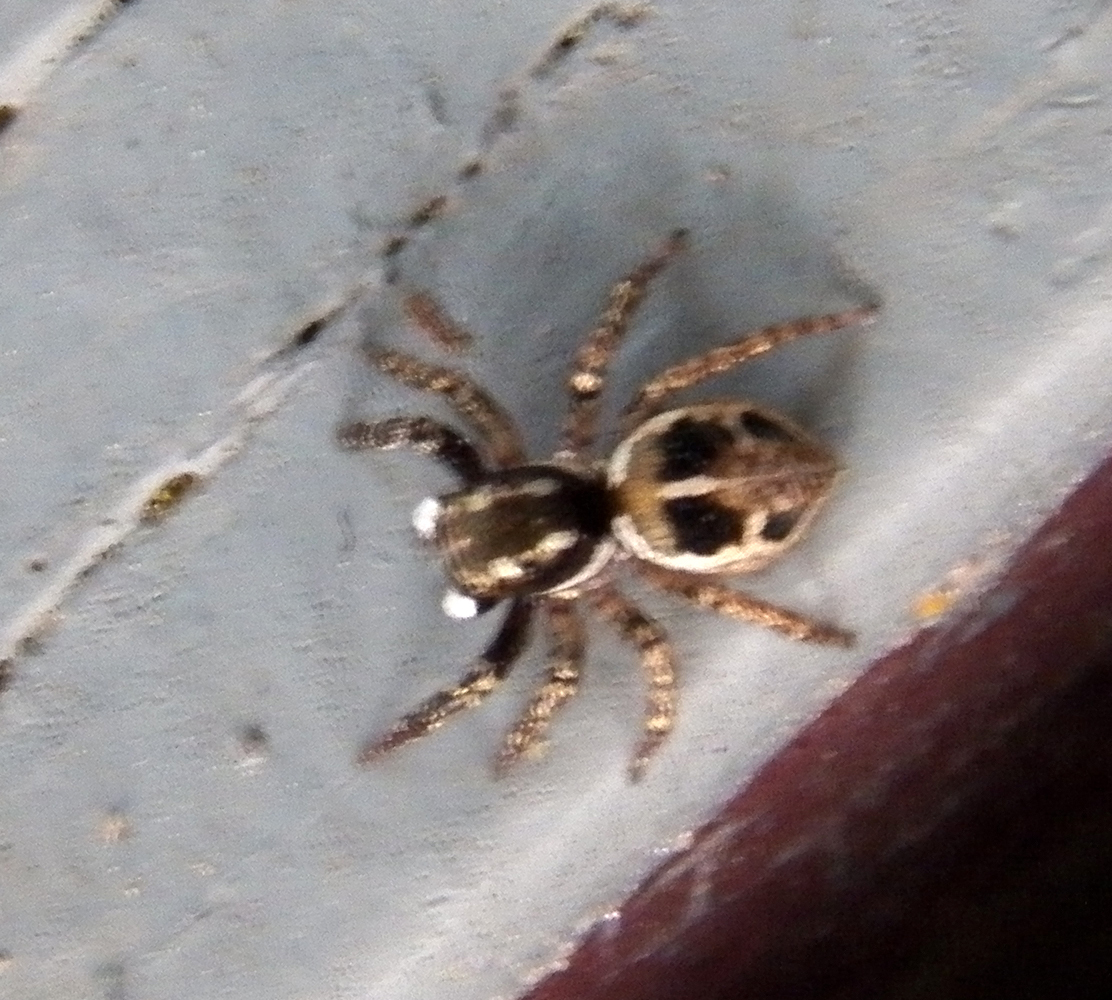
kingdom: Animalia
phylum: Arthropoda
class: Arachnida
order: Araneae
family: Salticidae
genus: Anasaitis
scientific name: Anasaitis canosa
